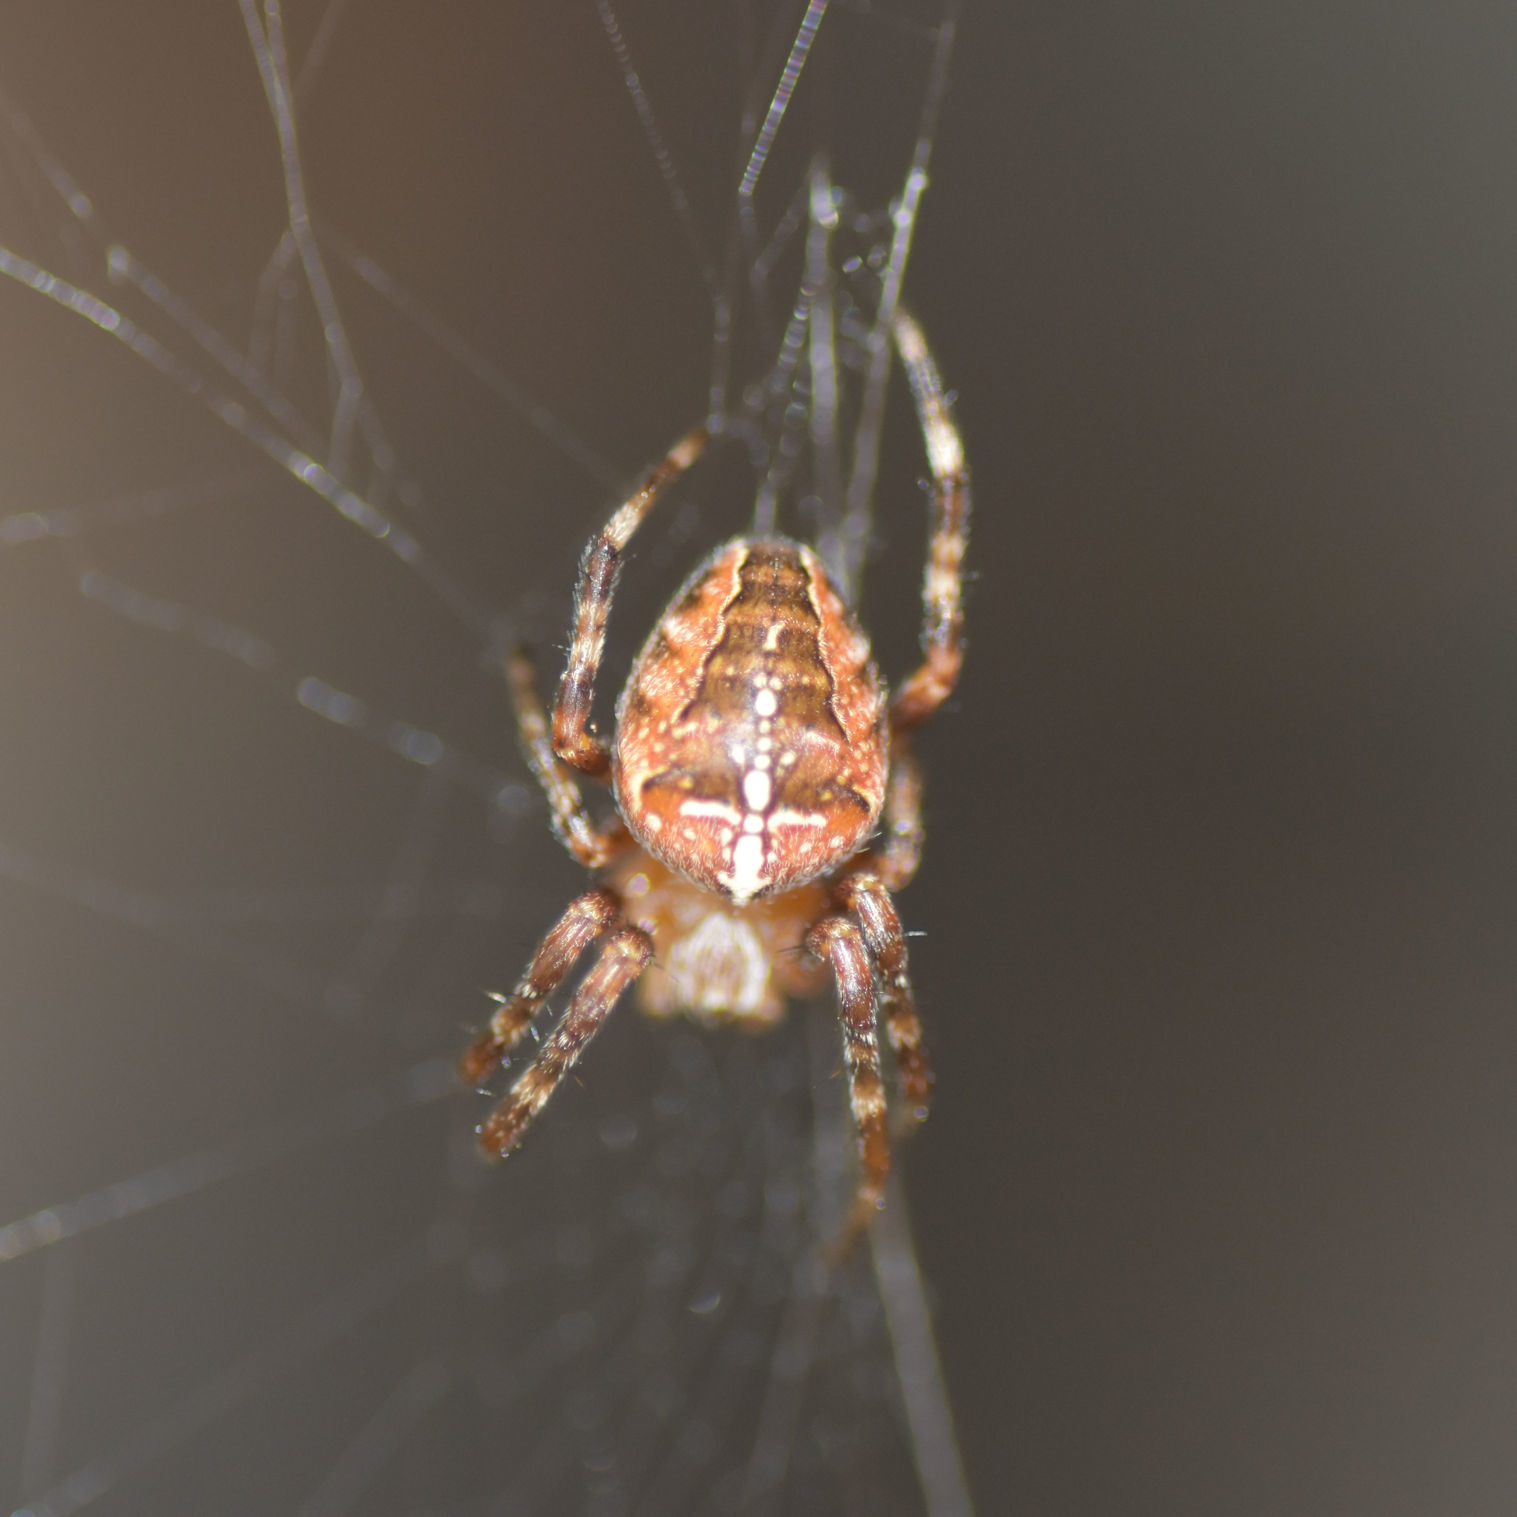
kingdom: Animalia
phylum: Arthropoda
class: Arachnida
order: Araneae
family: Araneidae
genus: Araneus
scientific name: Araneus diadematus
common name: Cross orbweaver
